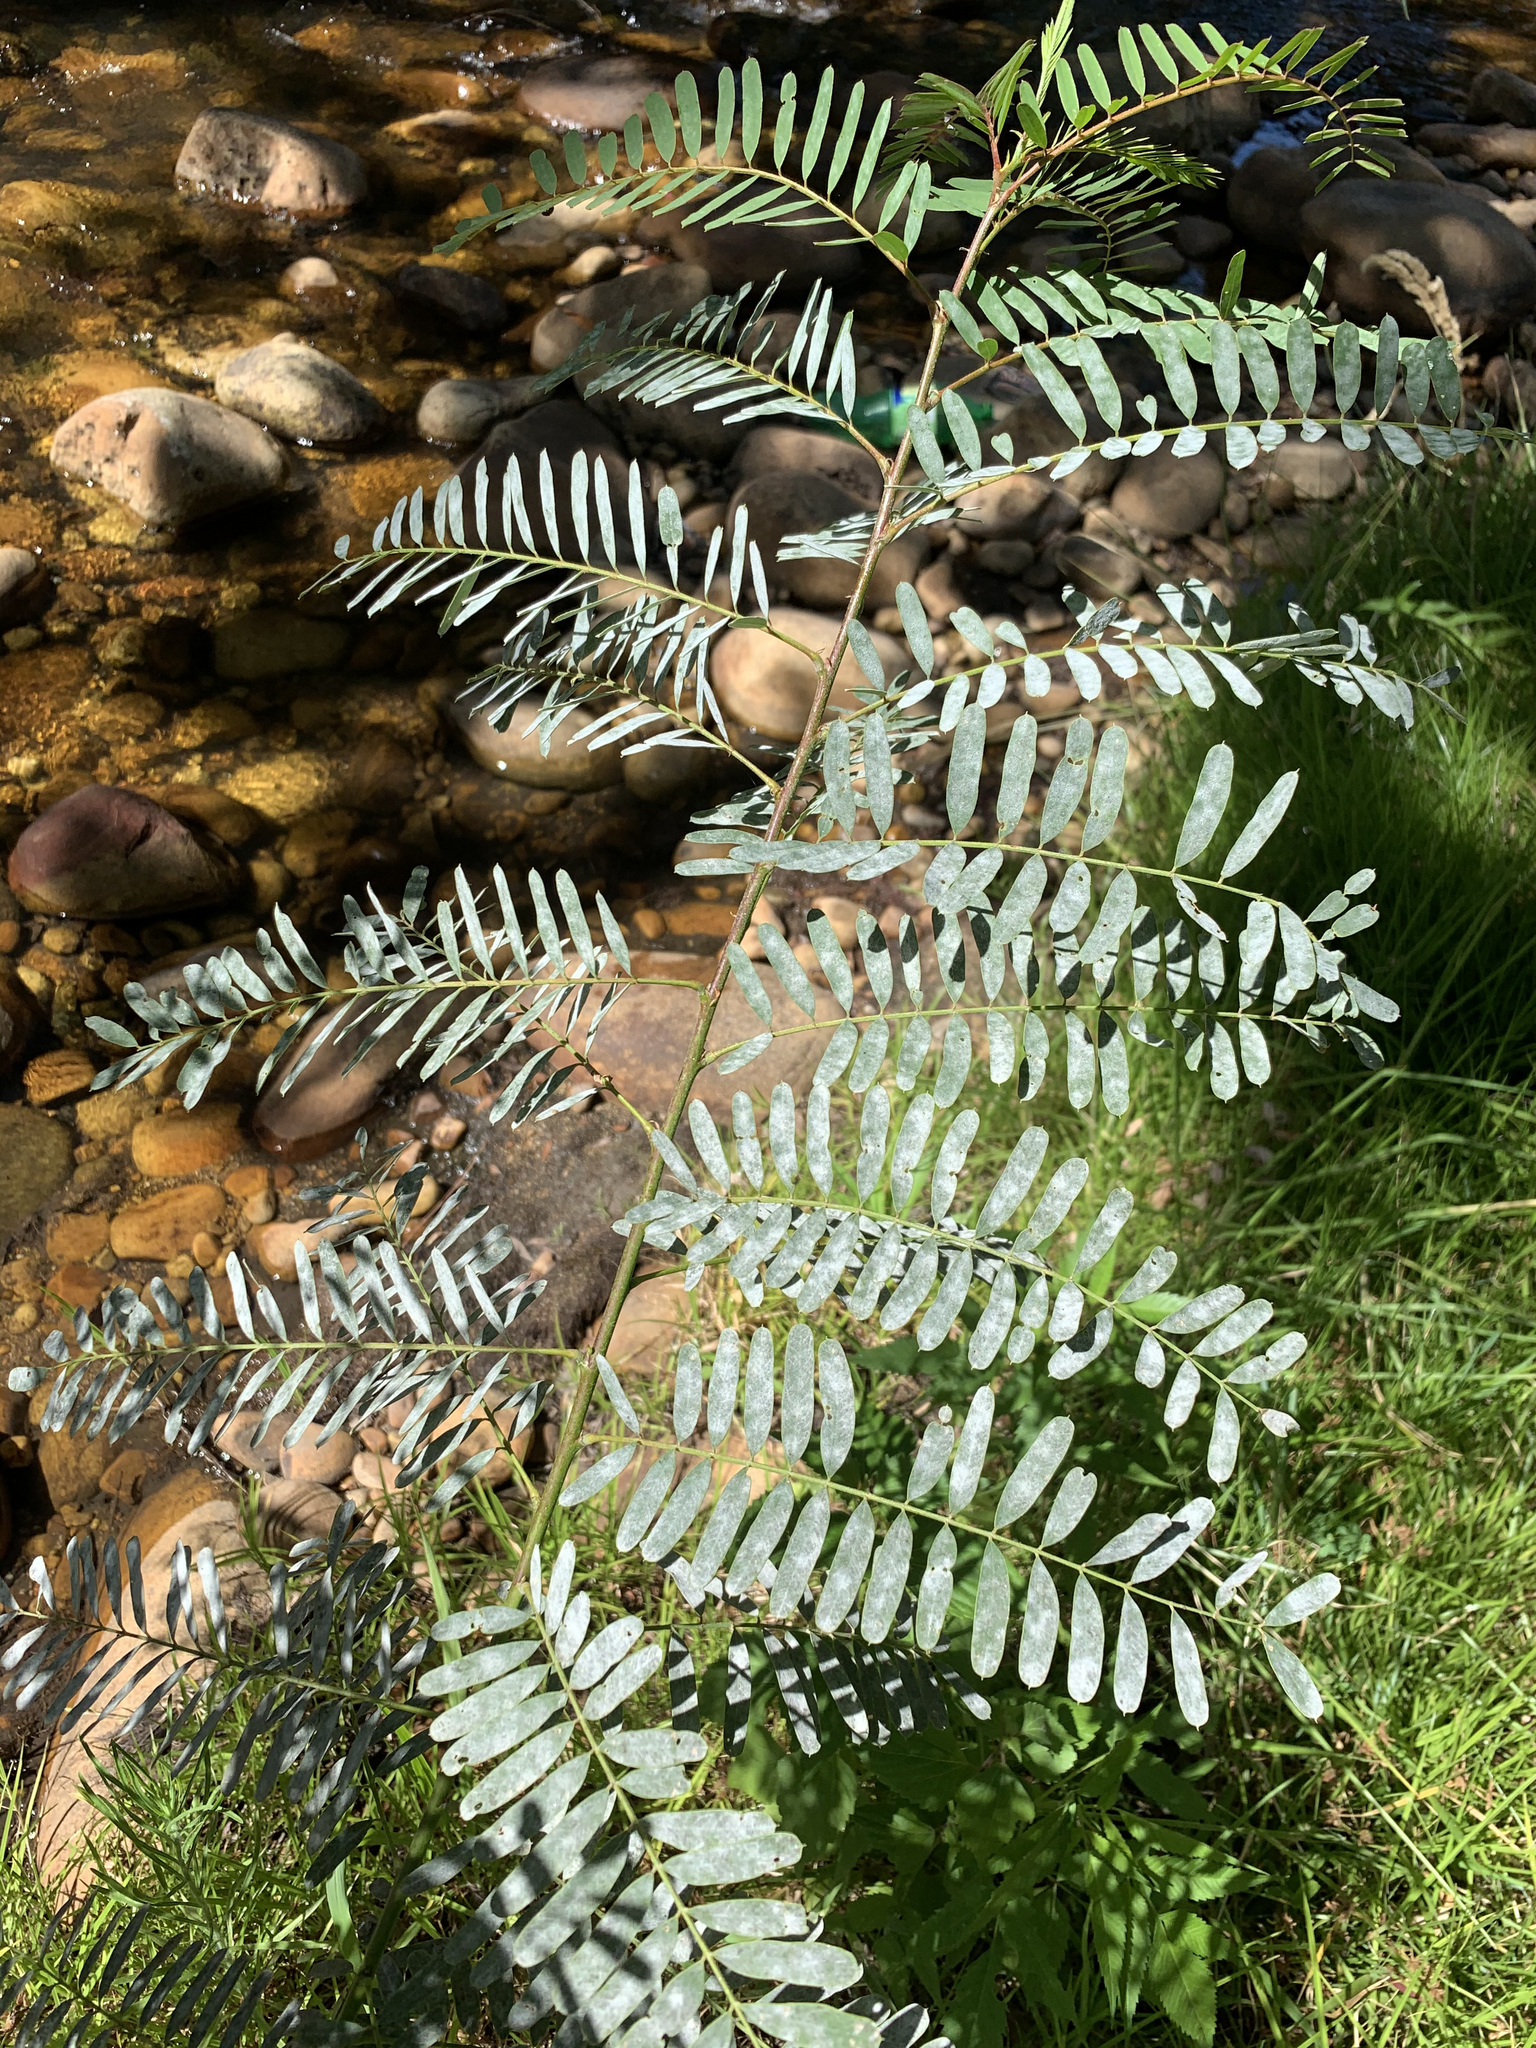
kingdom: Plantae
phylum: Tracheophyta
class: Magnoliopsida
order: Fabales
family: Fabaceae
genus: Sesbania
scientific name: Sesbania punicea
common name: Rattlebox
